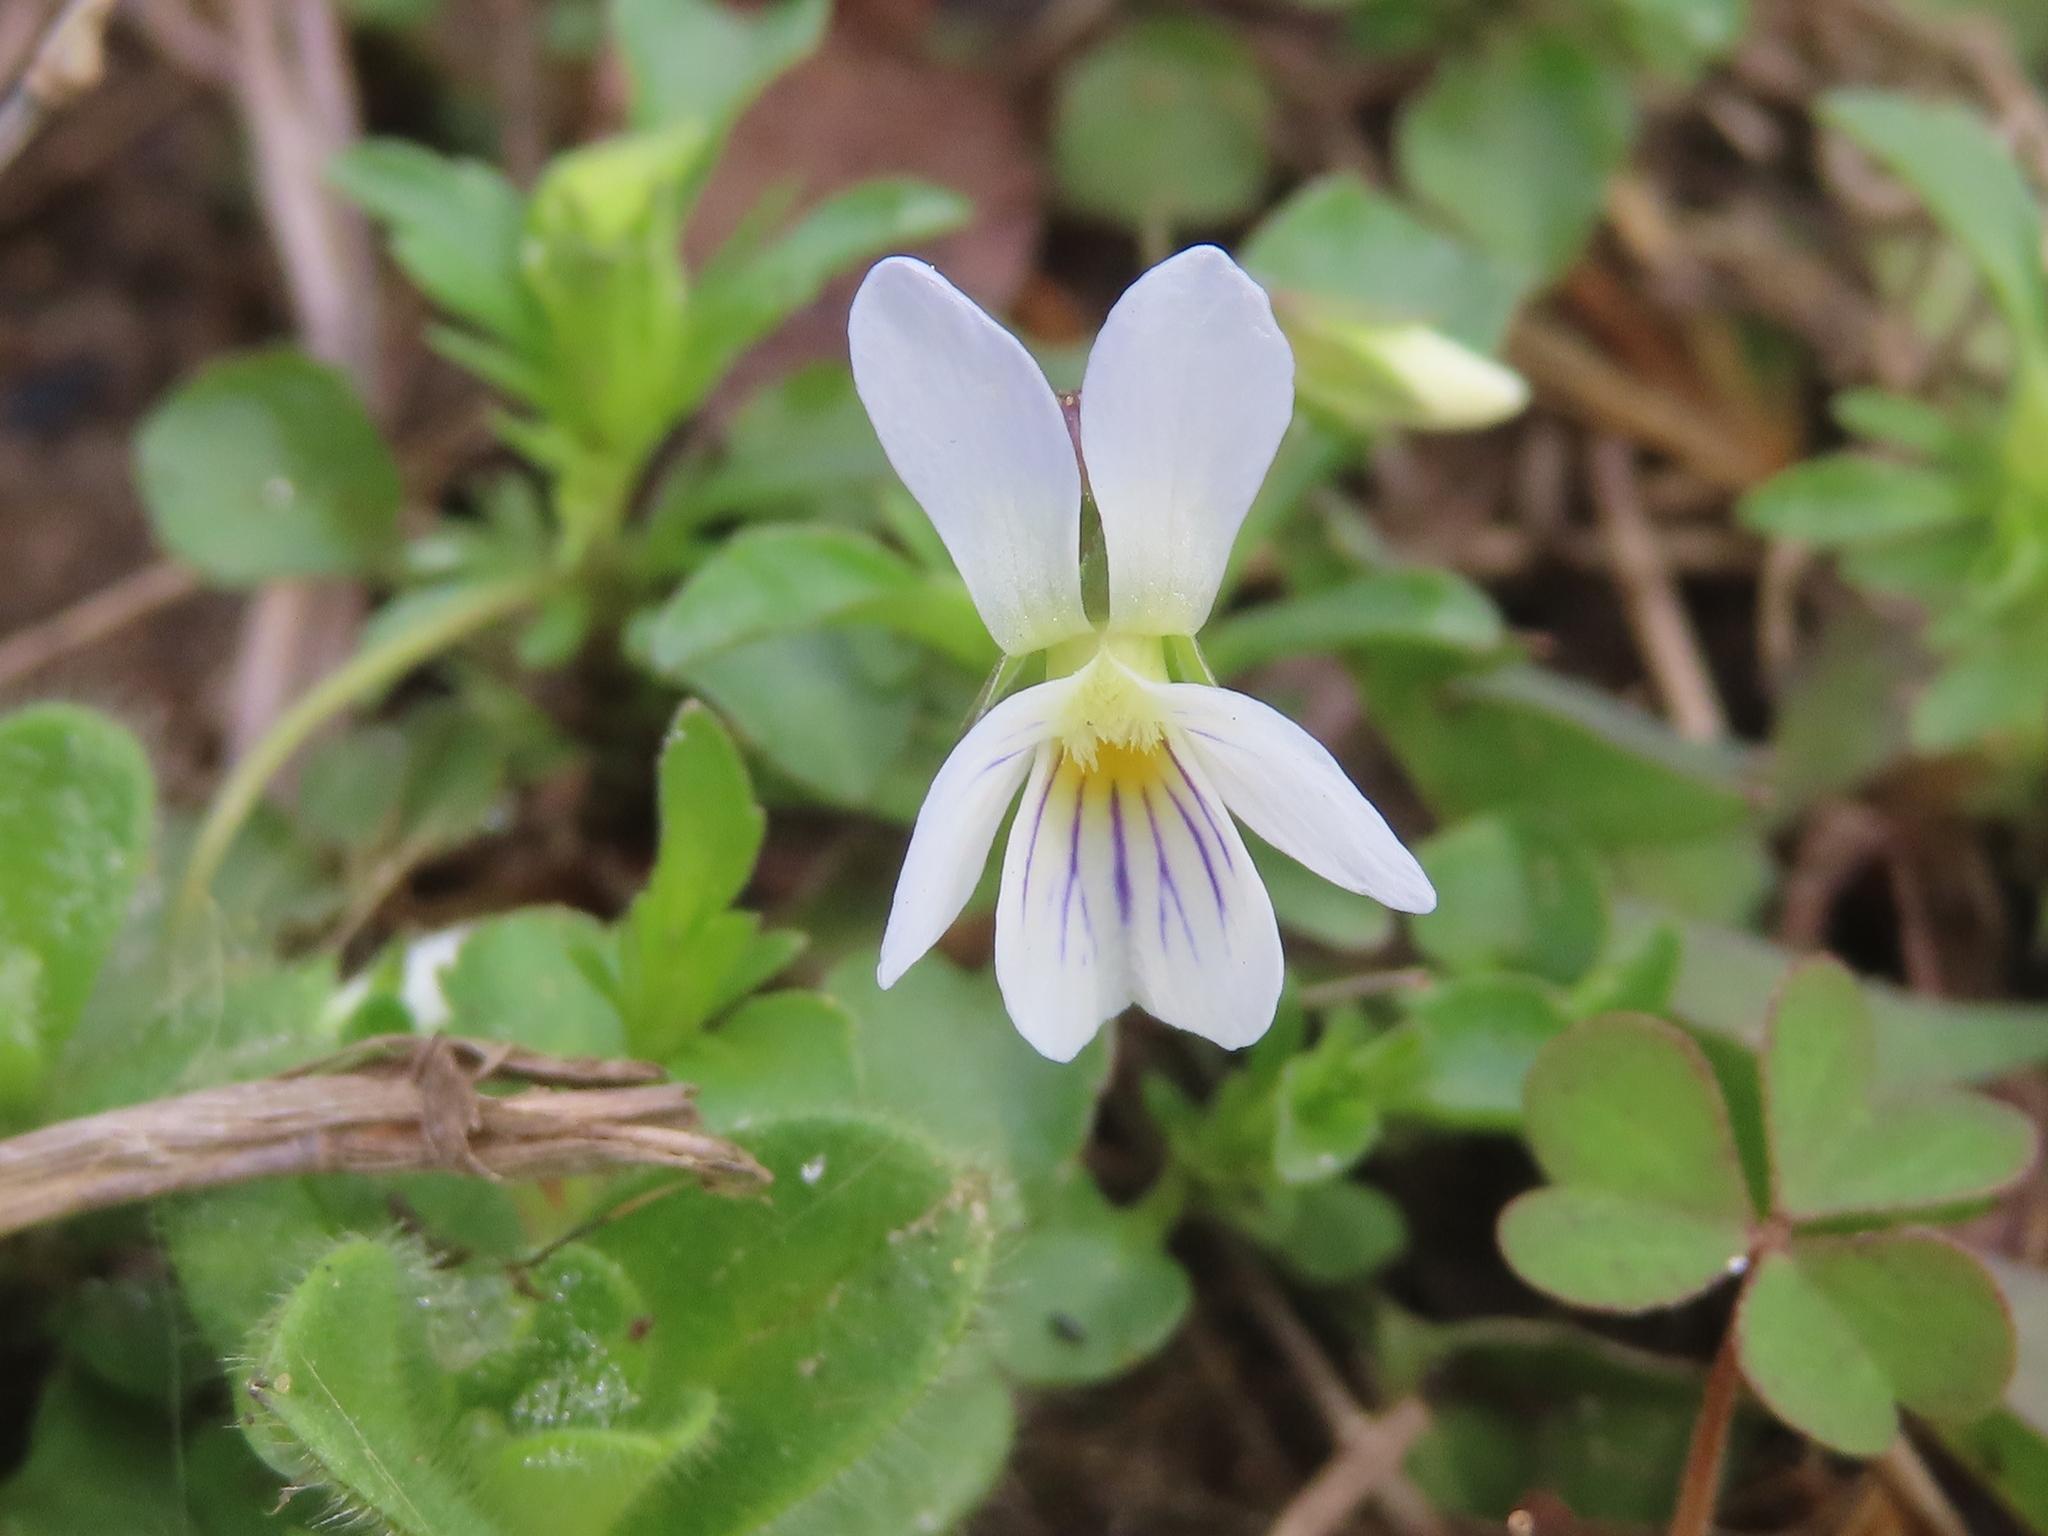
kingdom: Plantae
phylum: Tracheophyta
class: Magnoliopsida
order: Malpighiales
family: Violaceae
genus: Viola
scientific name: Viola rafinesquei
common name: American field pansy
